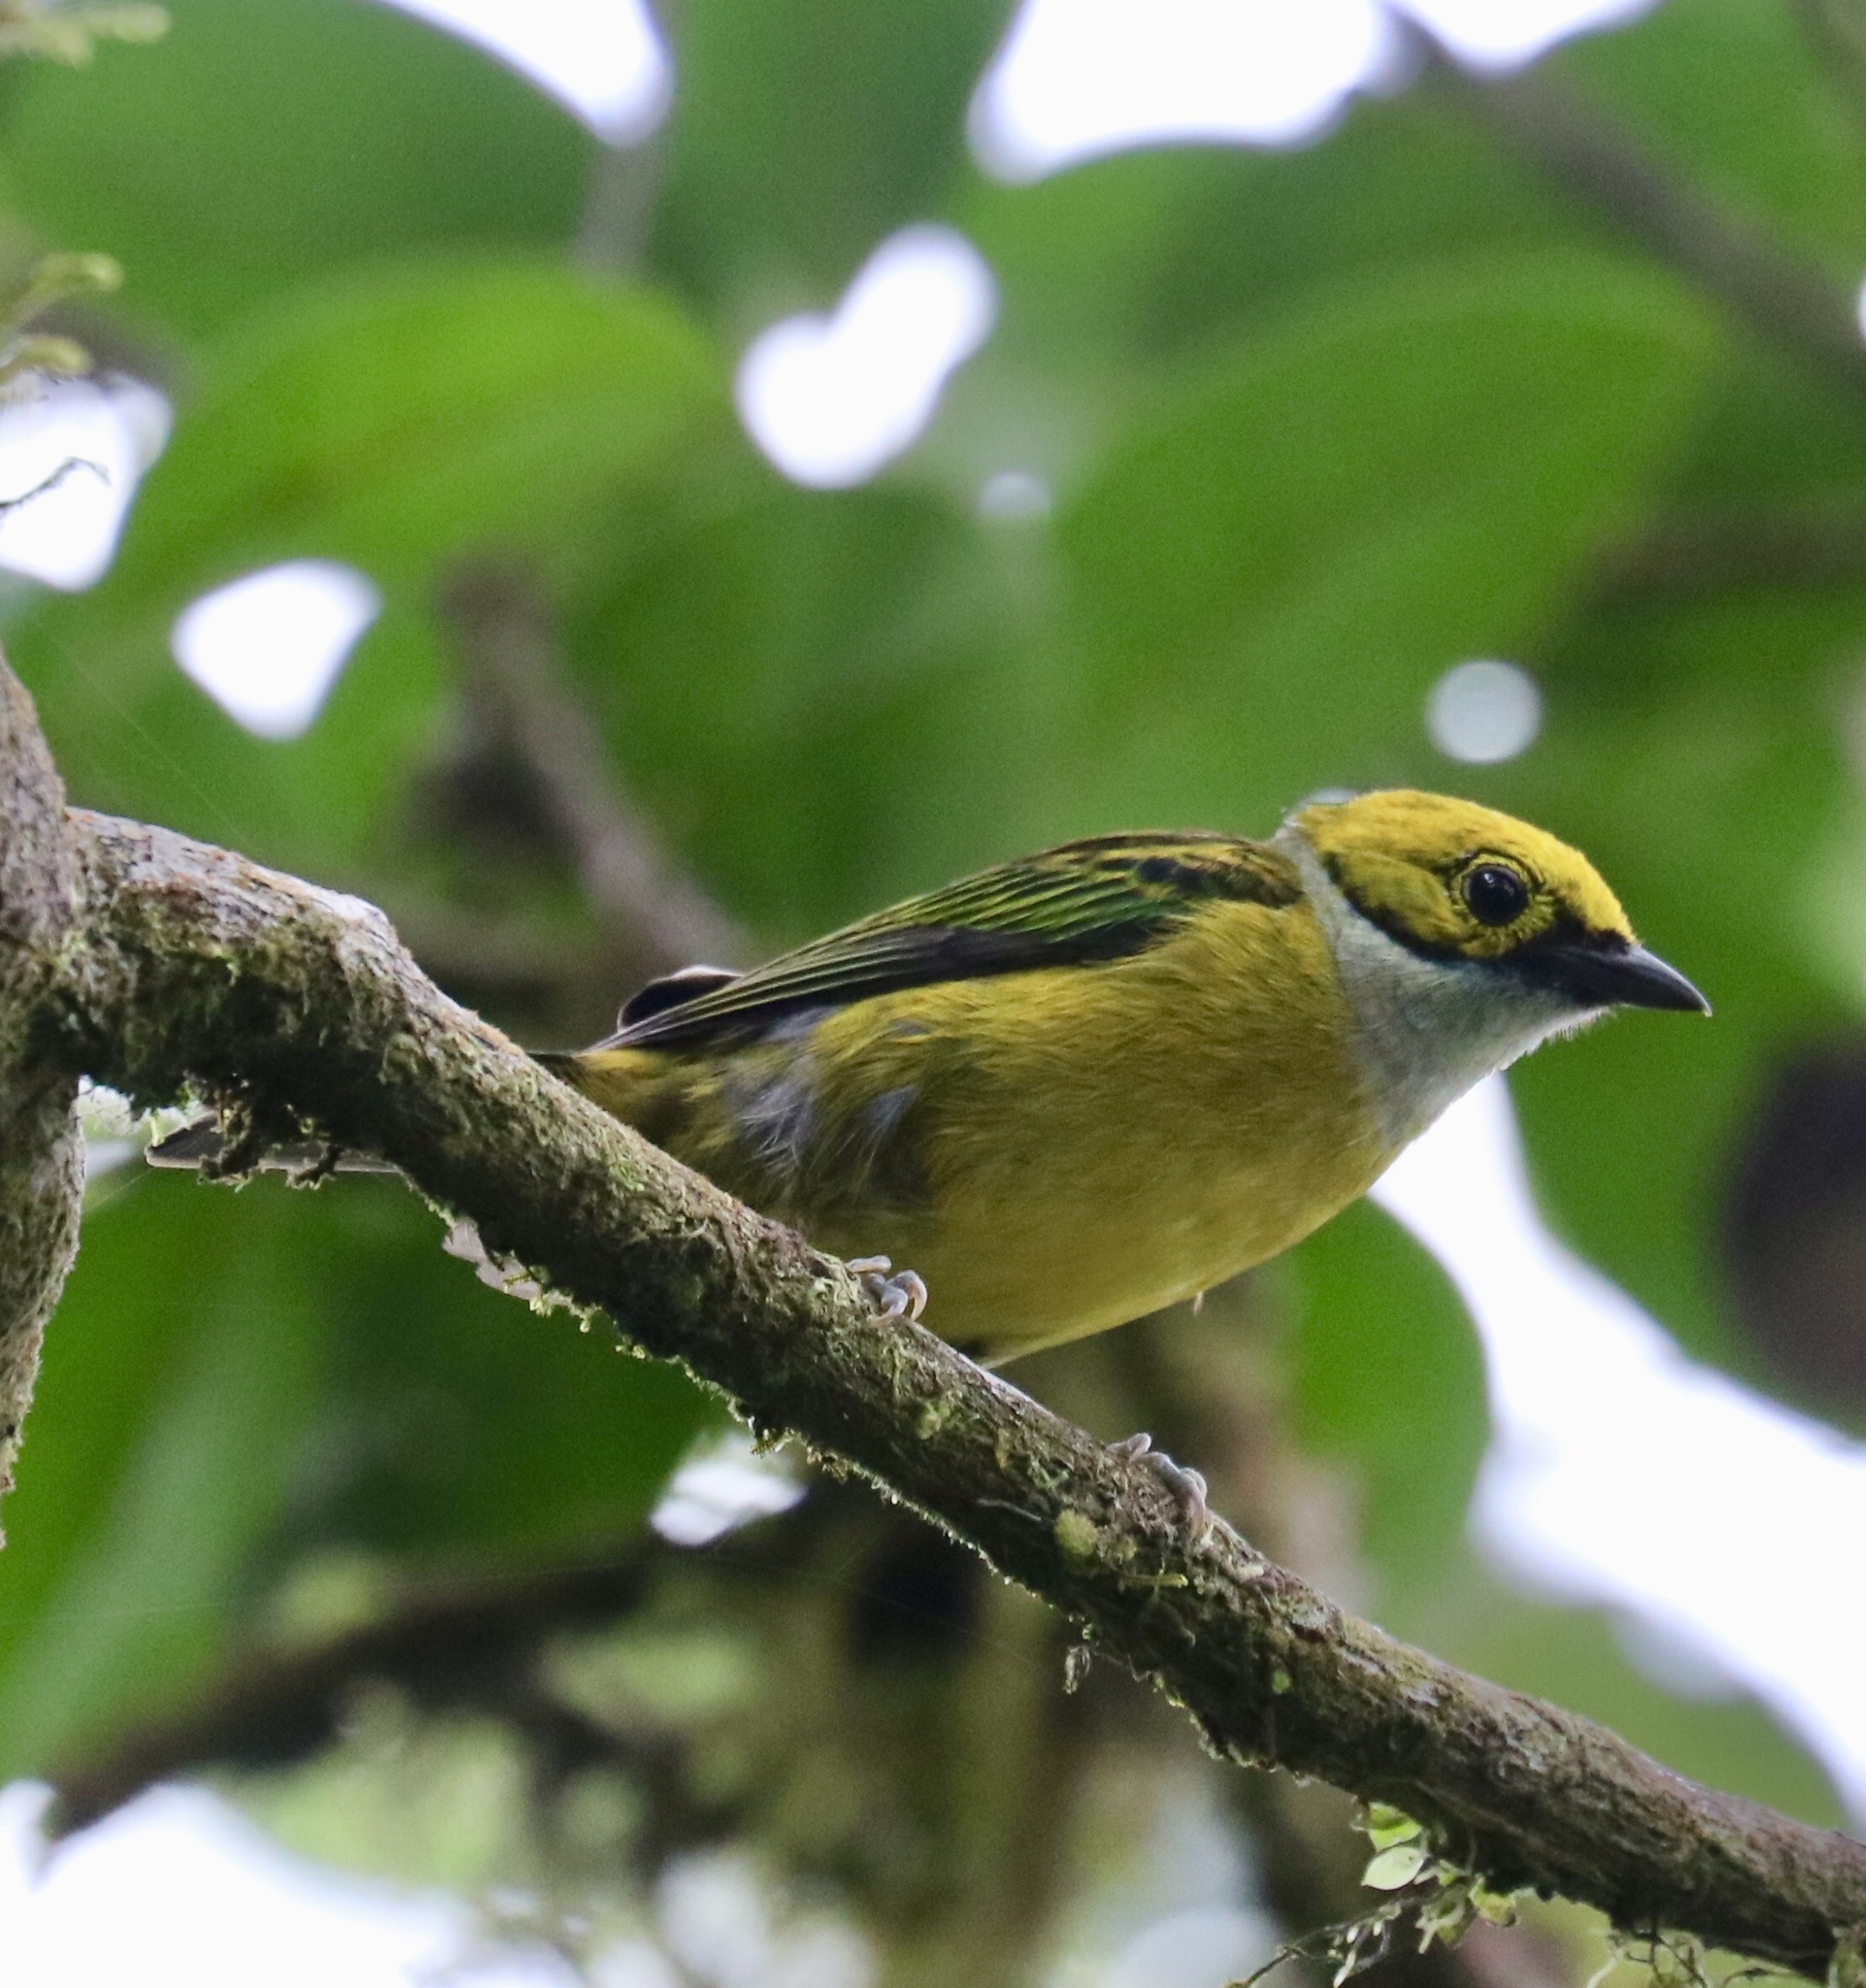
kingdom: Animalia
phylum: Chordata
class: Aves
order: Passeriformes
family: Thraupidae
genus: Tangara
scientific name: Tangara icterocephala
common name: Silver-throated tanager
